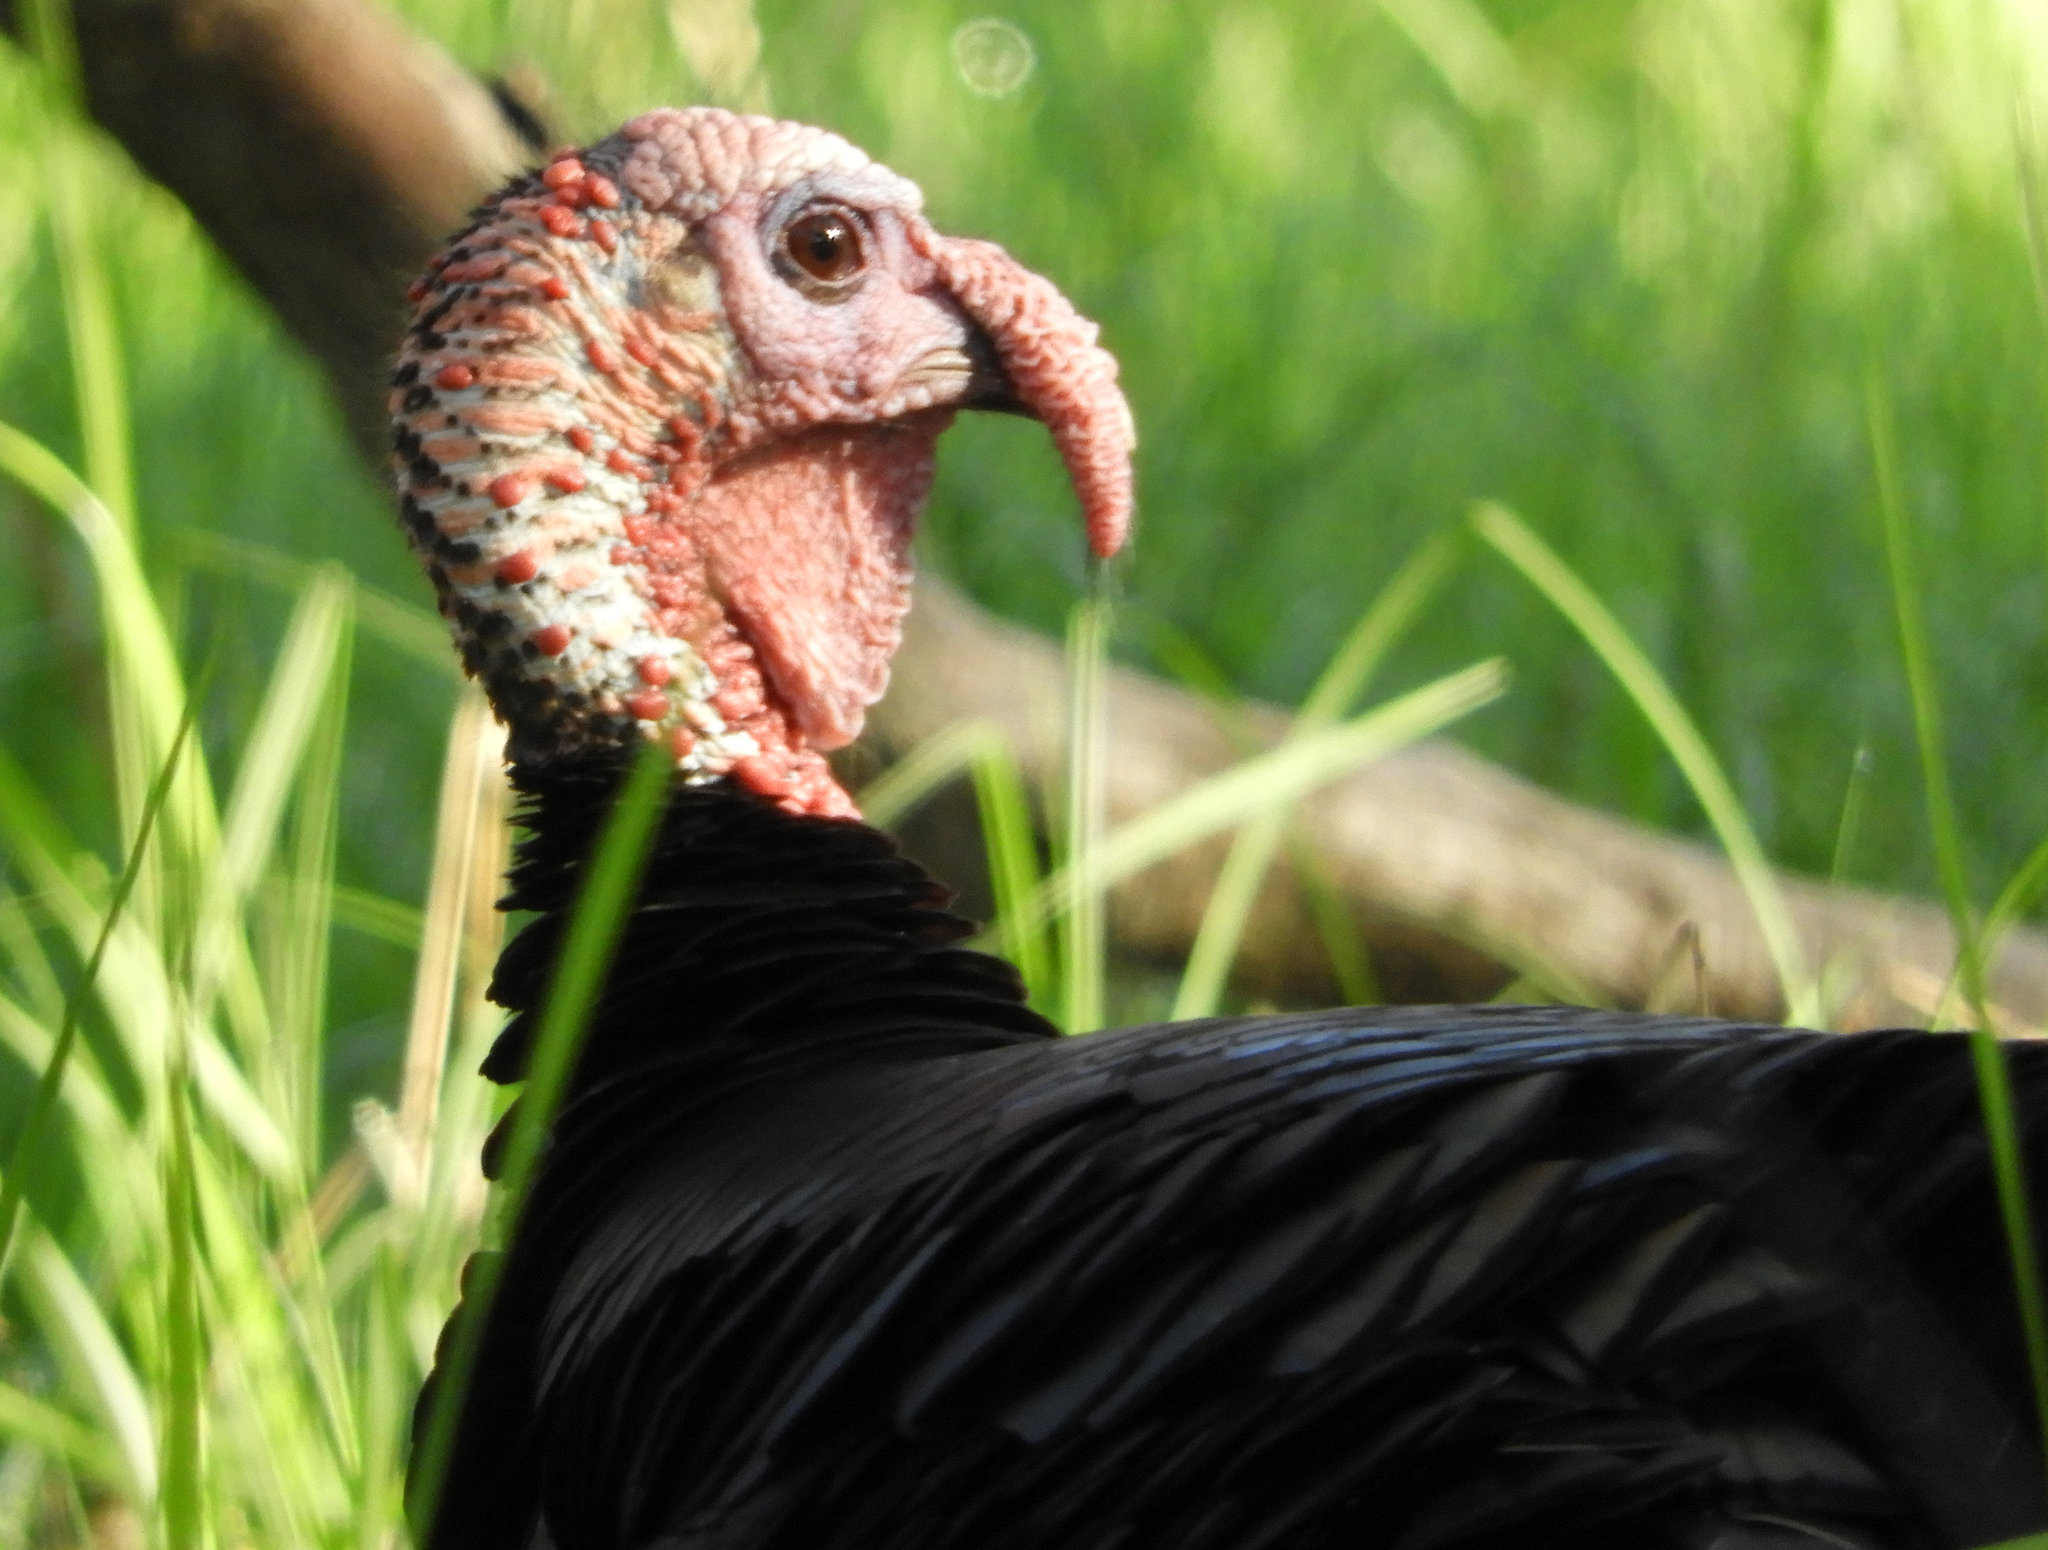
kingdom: Animalia
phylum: Chordata
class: Aves
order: Galliformes
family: Phasianidae
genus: Meleagris
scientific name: Meleagris gallopavo
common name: Wild turkey
